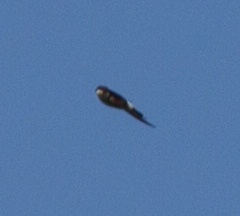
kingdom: Animalia
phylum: Chordata
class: Aves
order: Passeriformes
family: Hirundinidae
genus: Delichon
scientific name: Delichon urbicum
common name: Common house martin
